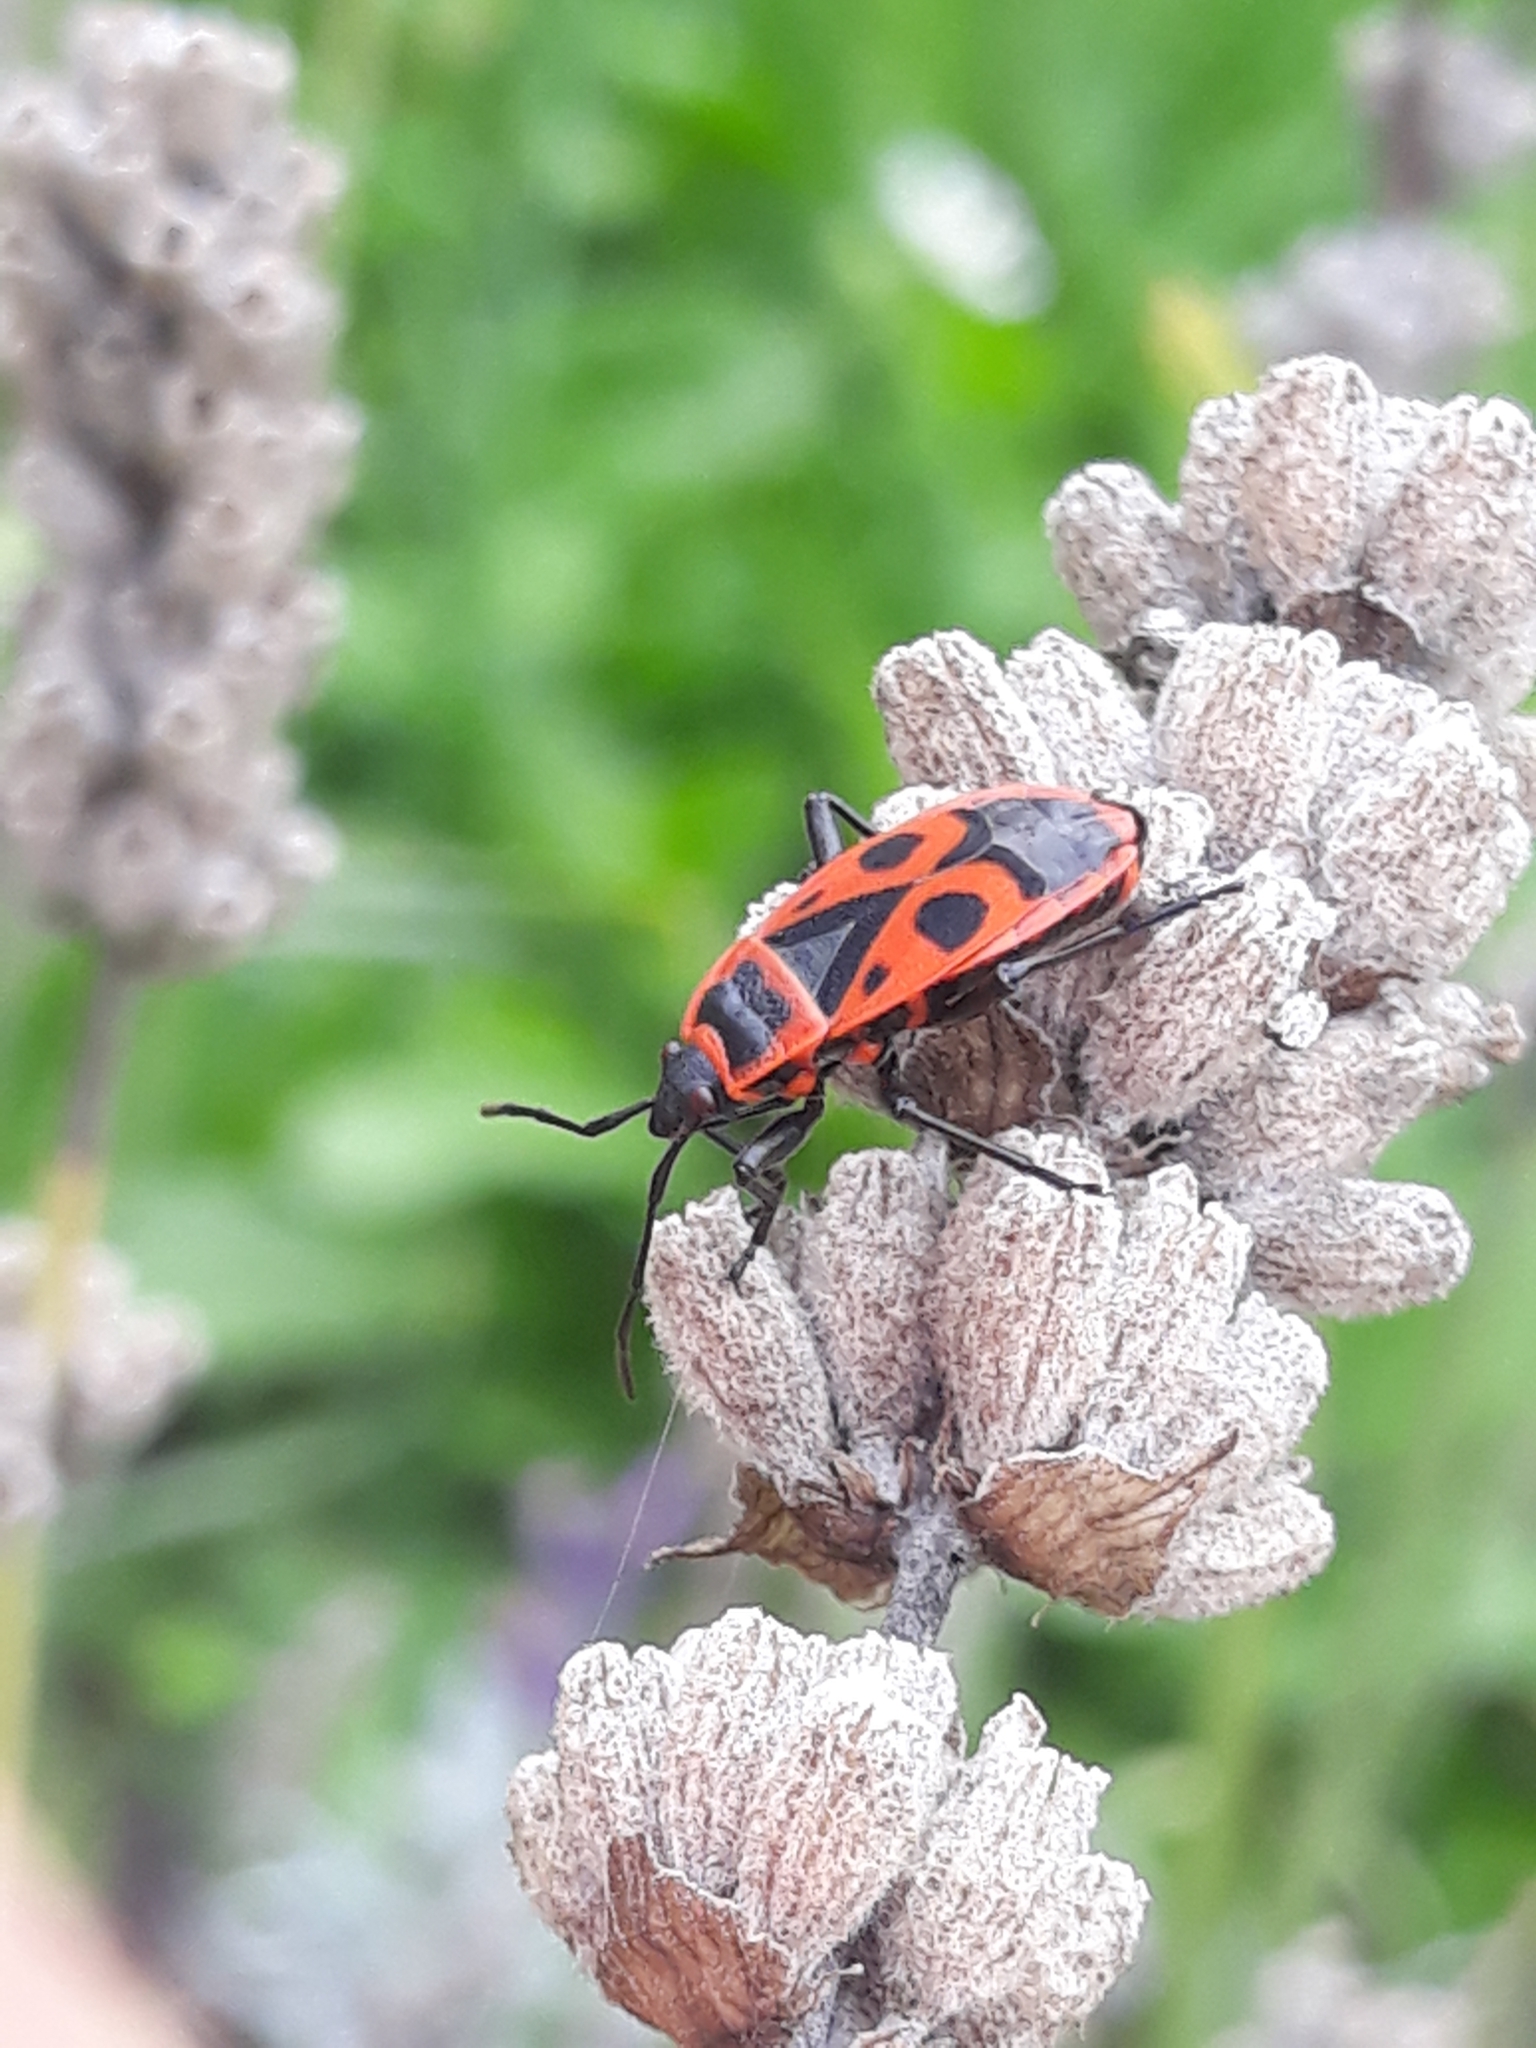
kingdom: Animalia
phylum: Arthropoda
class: Insecta
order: Hemiptera
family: Pyrrhocoridae
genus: Pyrrhocoris
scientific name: Pyrrhocoris apterus
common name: Firebug
